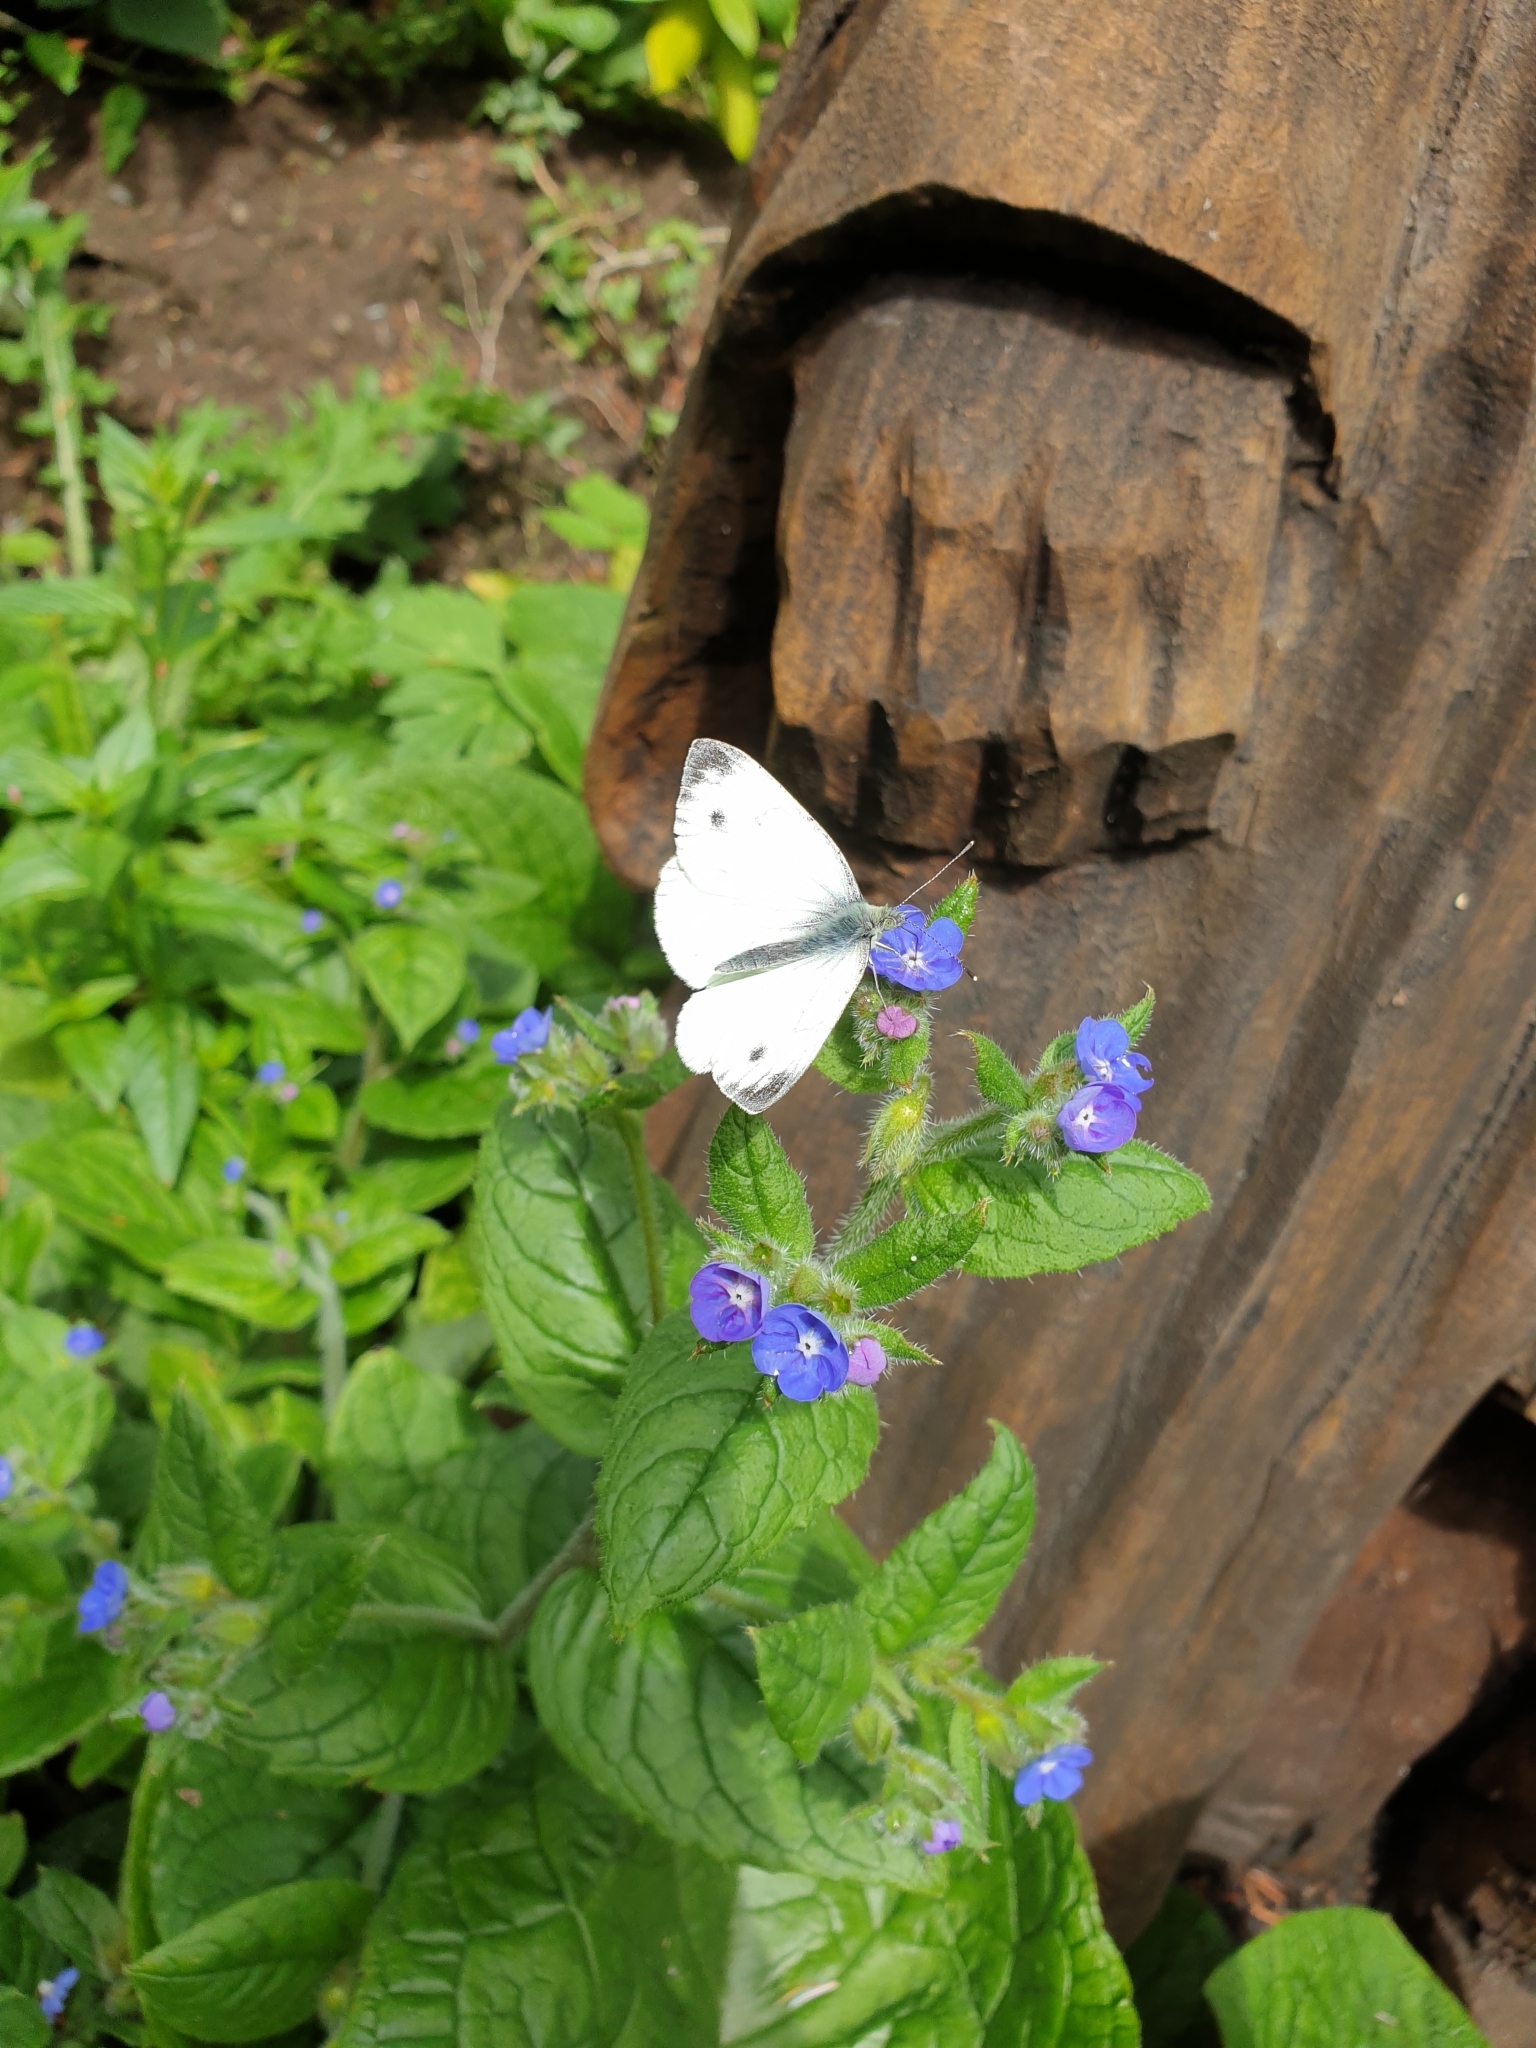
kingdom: Animalia
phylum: Arthropoda
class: Insecta
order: Lepidoptera
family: Pieridae
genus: Pieris
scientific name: Pieris napi
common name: Green-veined white
